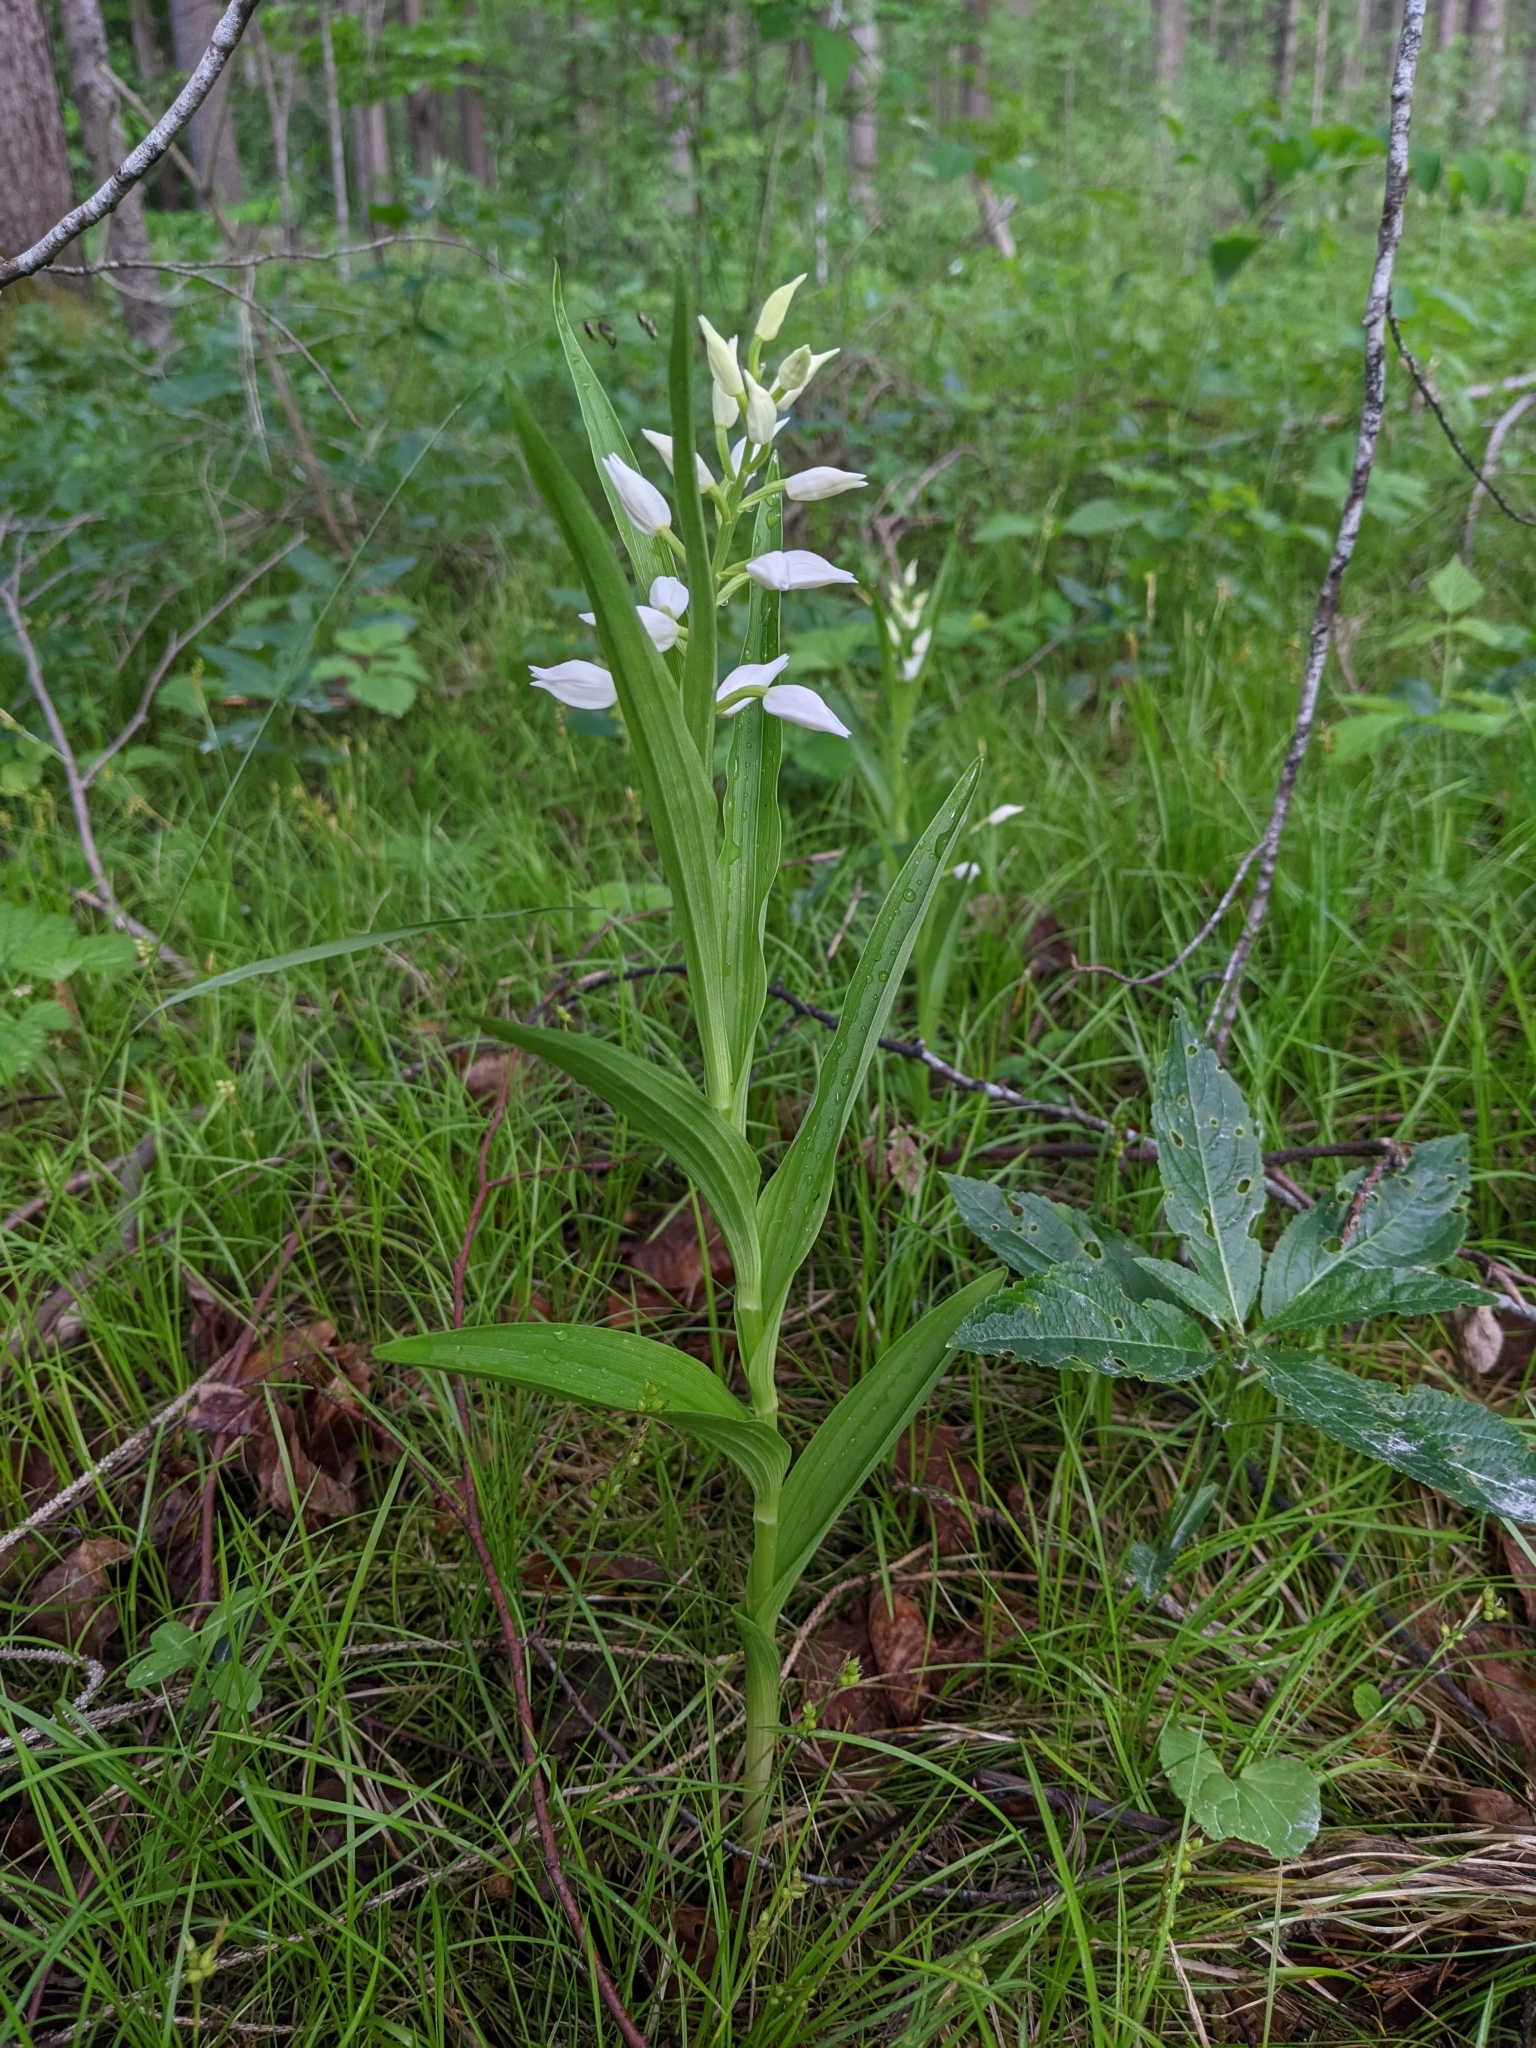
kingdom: Plantae
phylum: Tracheophyta
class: Liliopsida
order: Asparagales
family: Orchidaceae
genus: Cephalanthera
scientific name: Cephalanthera longifolia
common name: Narrow-leaved helleborine
